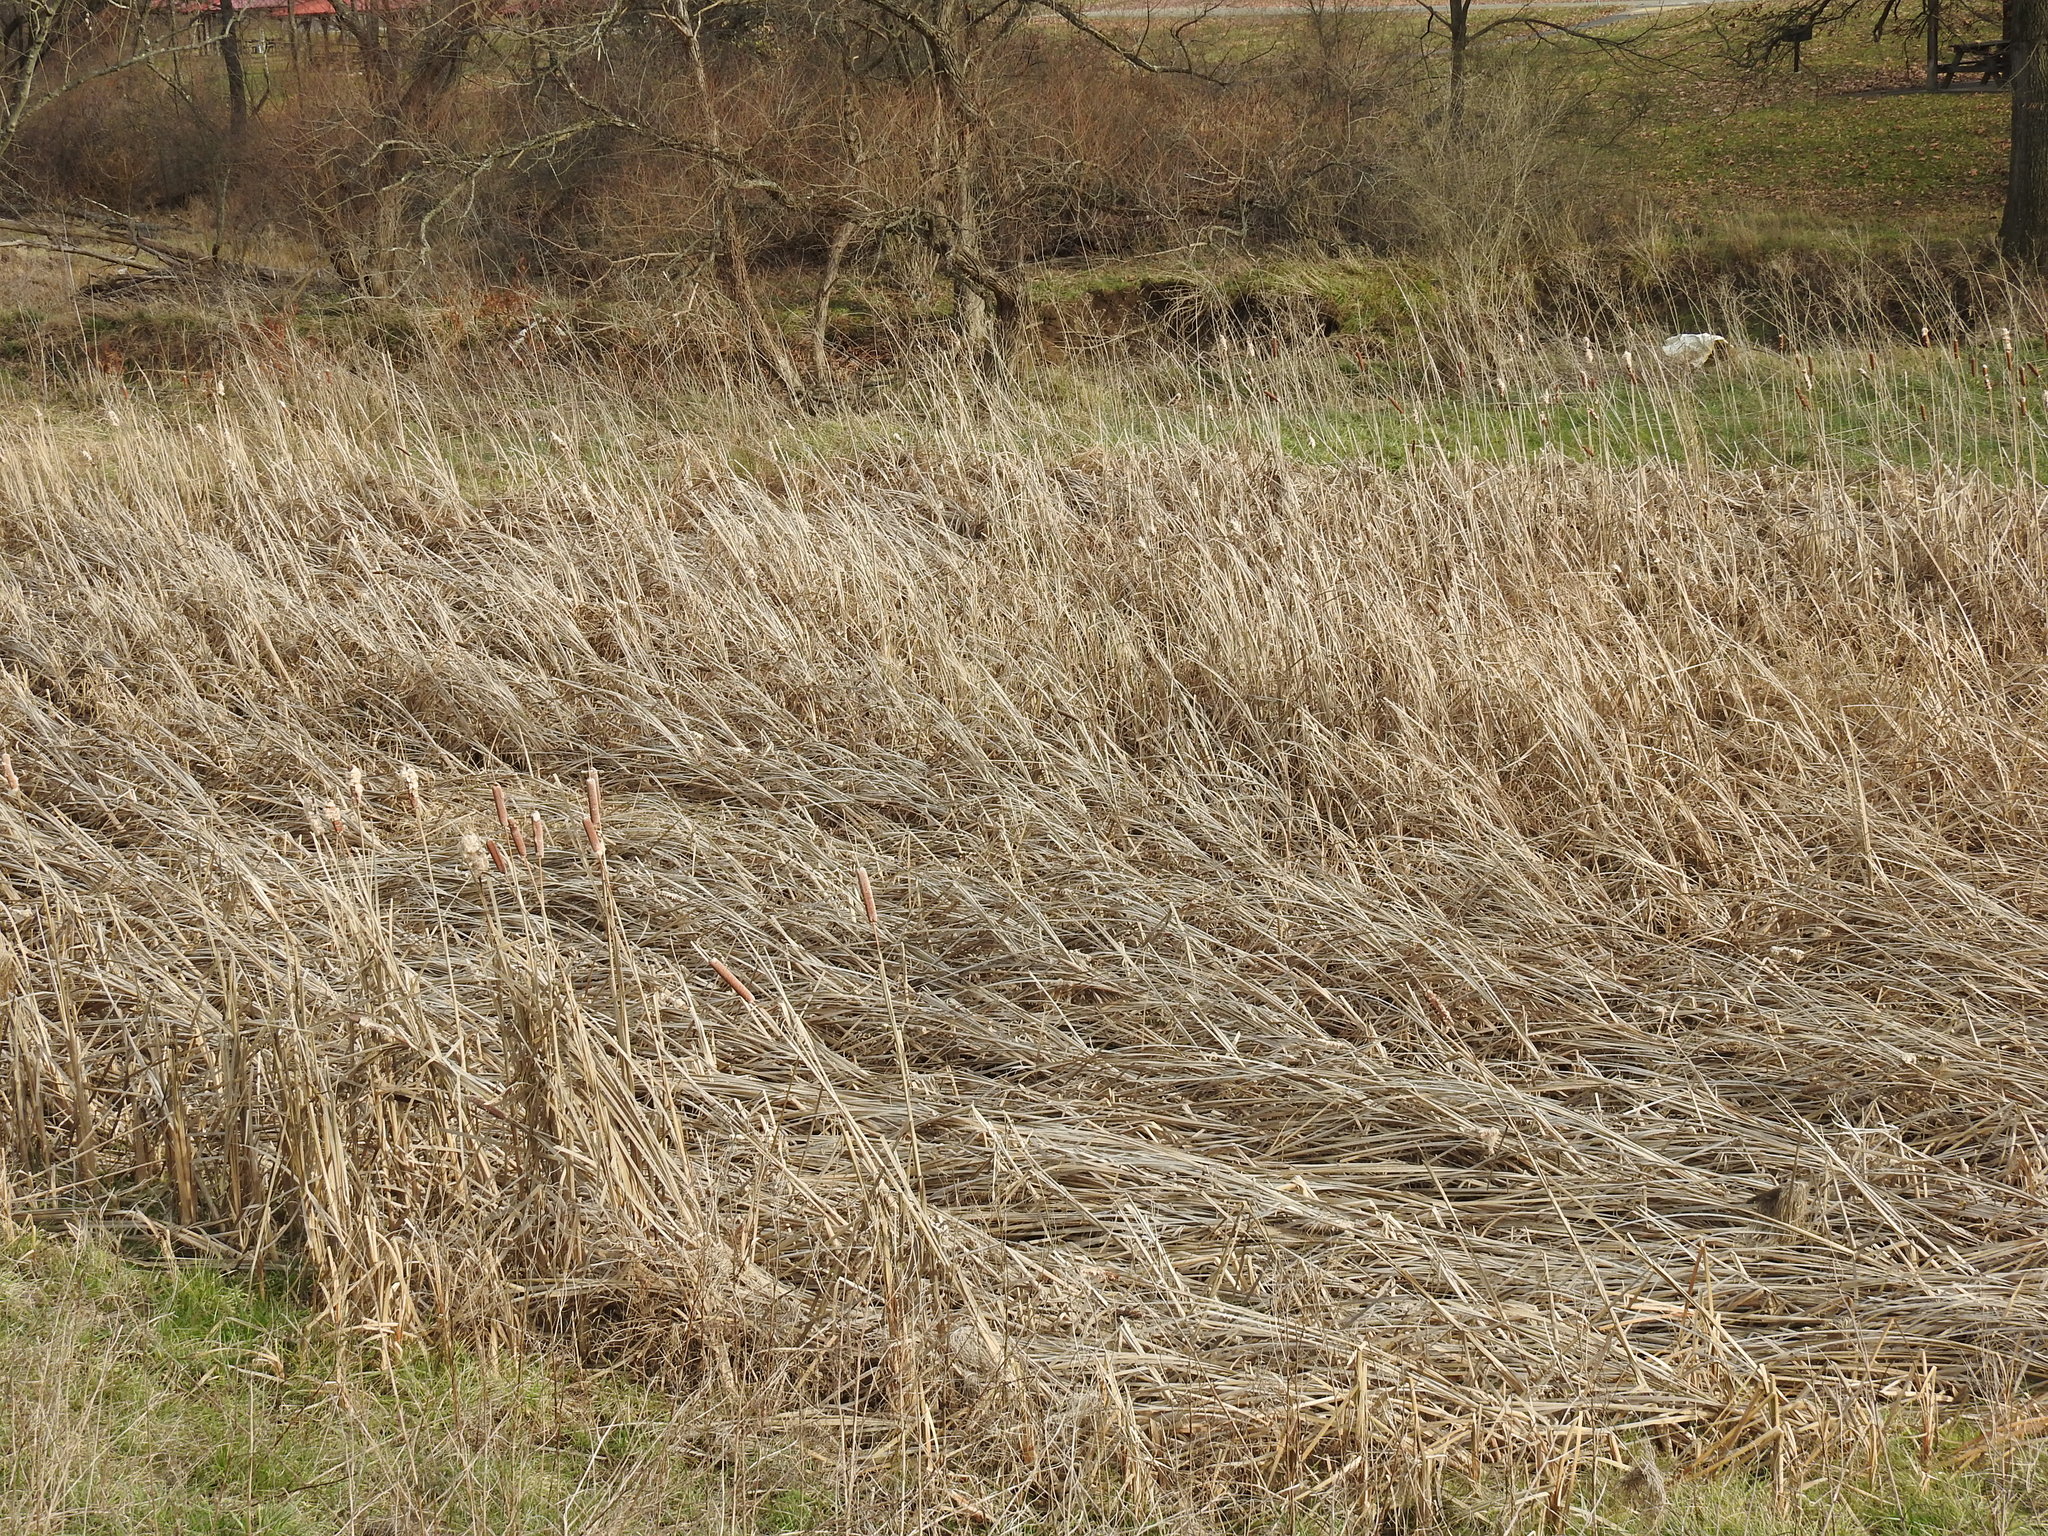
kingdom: Plantae
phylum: Tracheophyta
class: Liliopsida
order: Poales
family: Typhaceae
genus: Typha
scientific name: Typha
